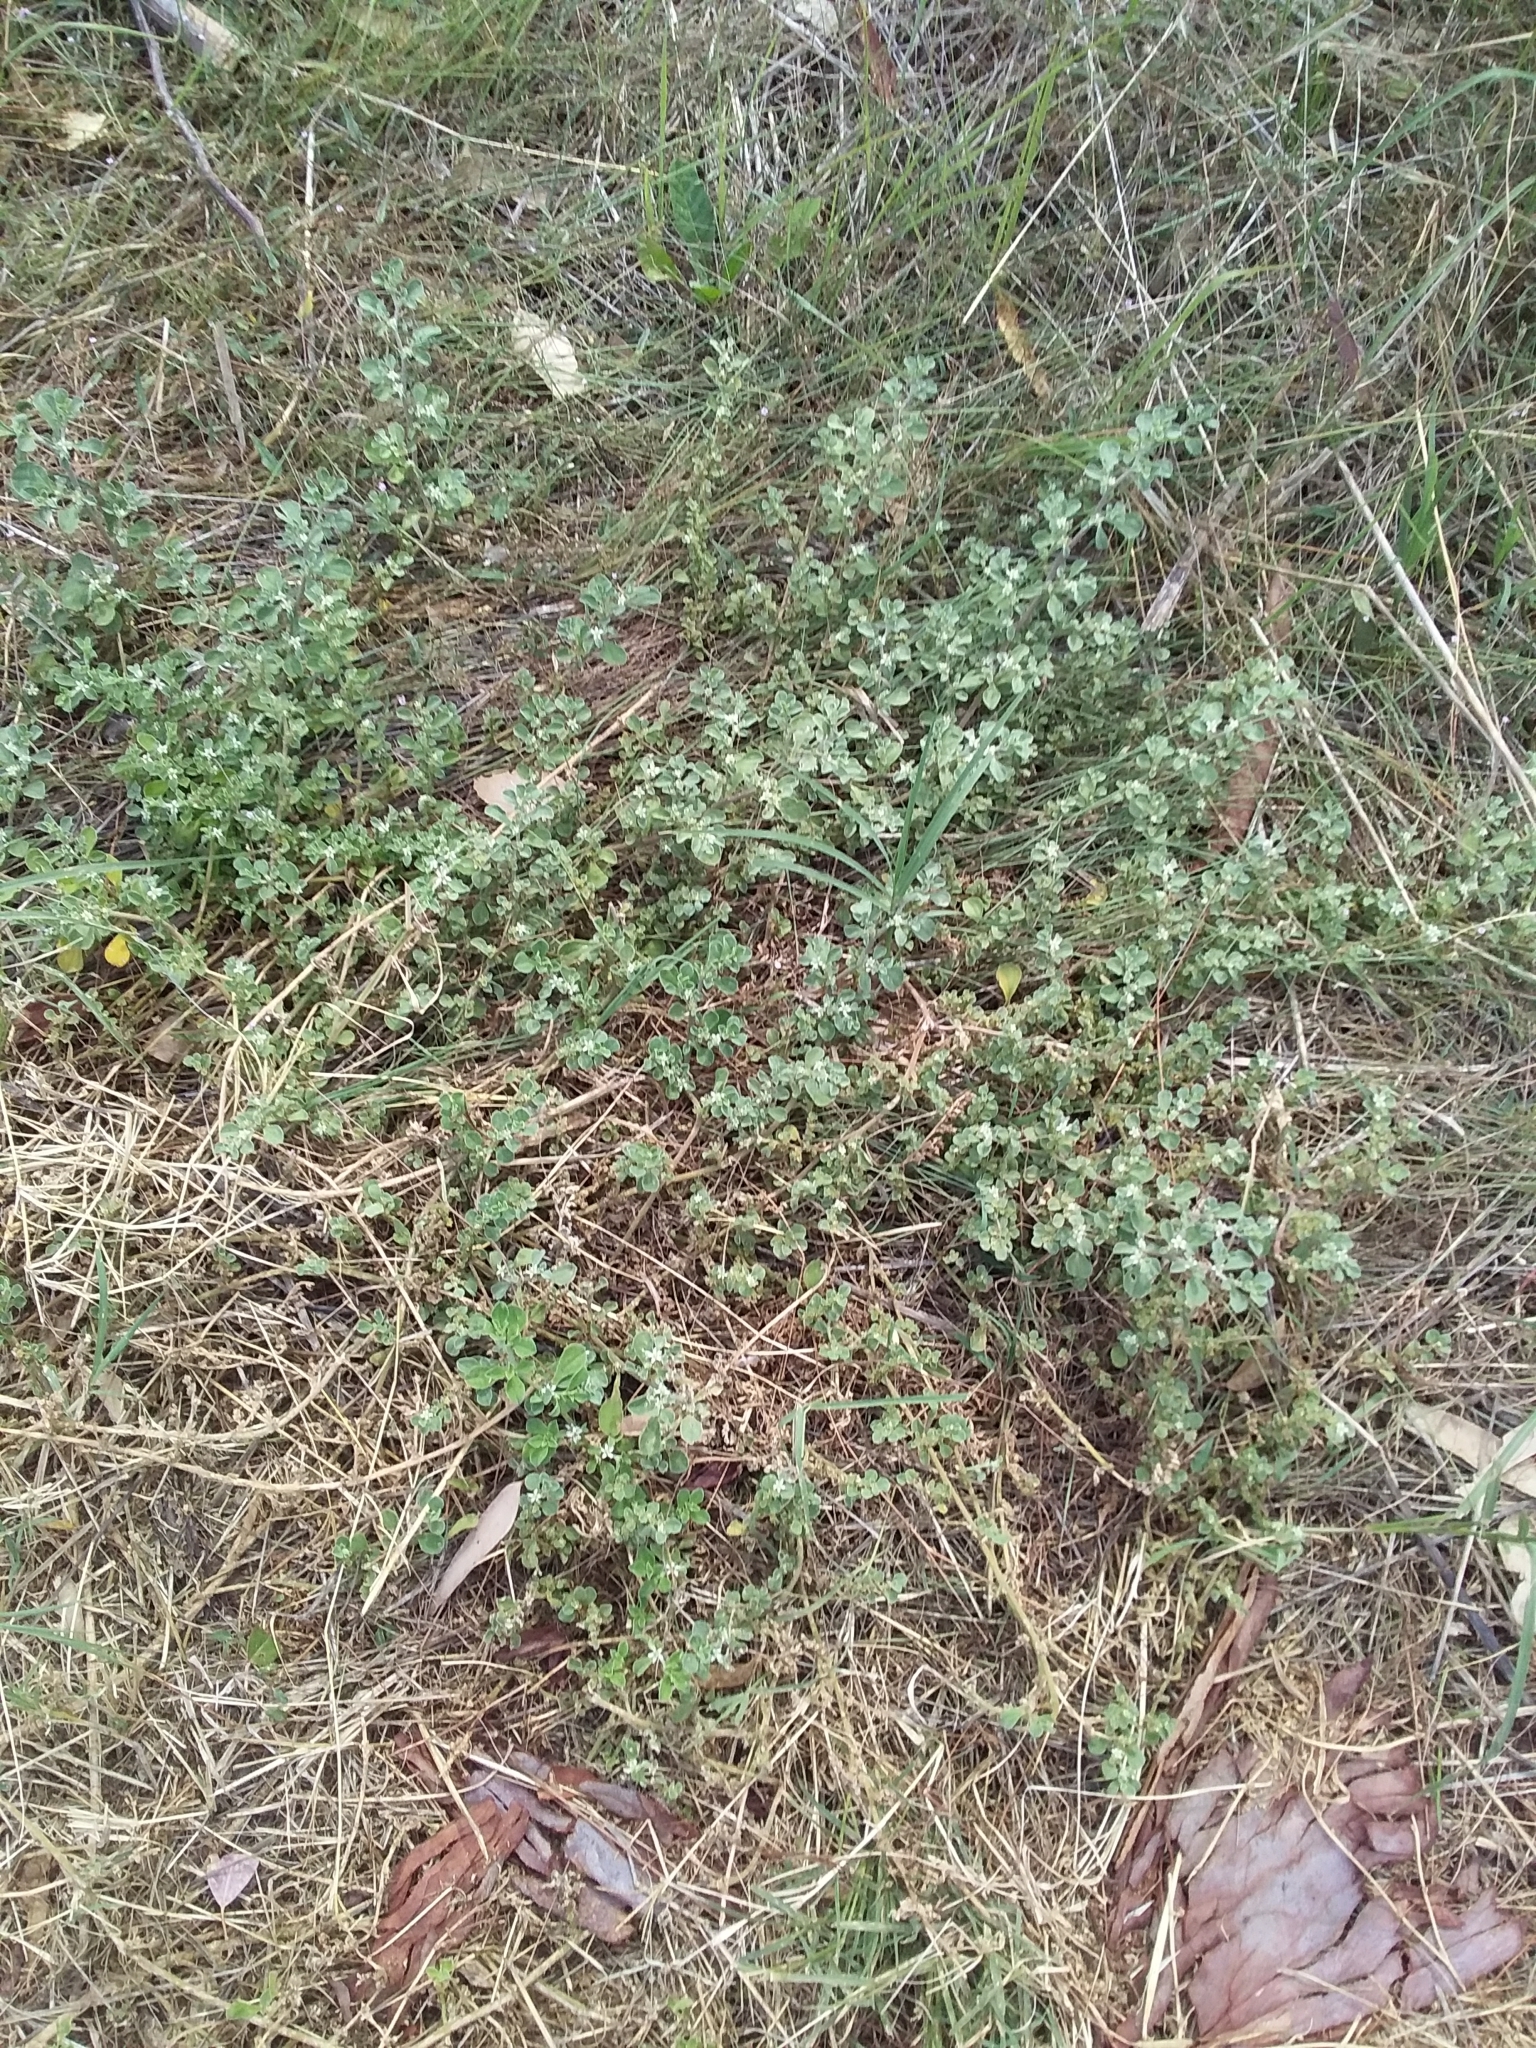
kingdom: Plantae
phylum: Tracheophyta
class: Magnoliopsida
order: Caryophyllales
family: Aizoaceae
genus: Aizoon
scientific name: Aizoon pubescens
